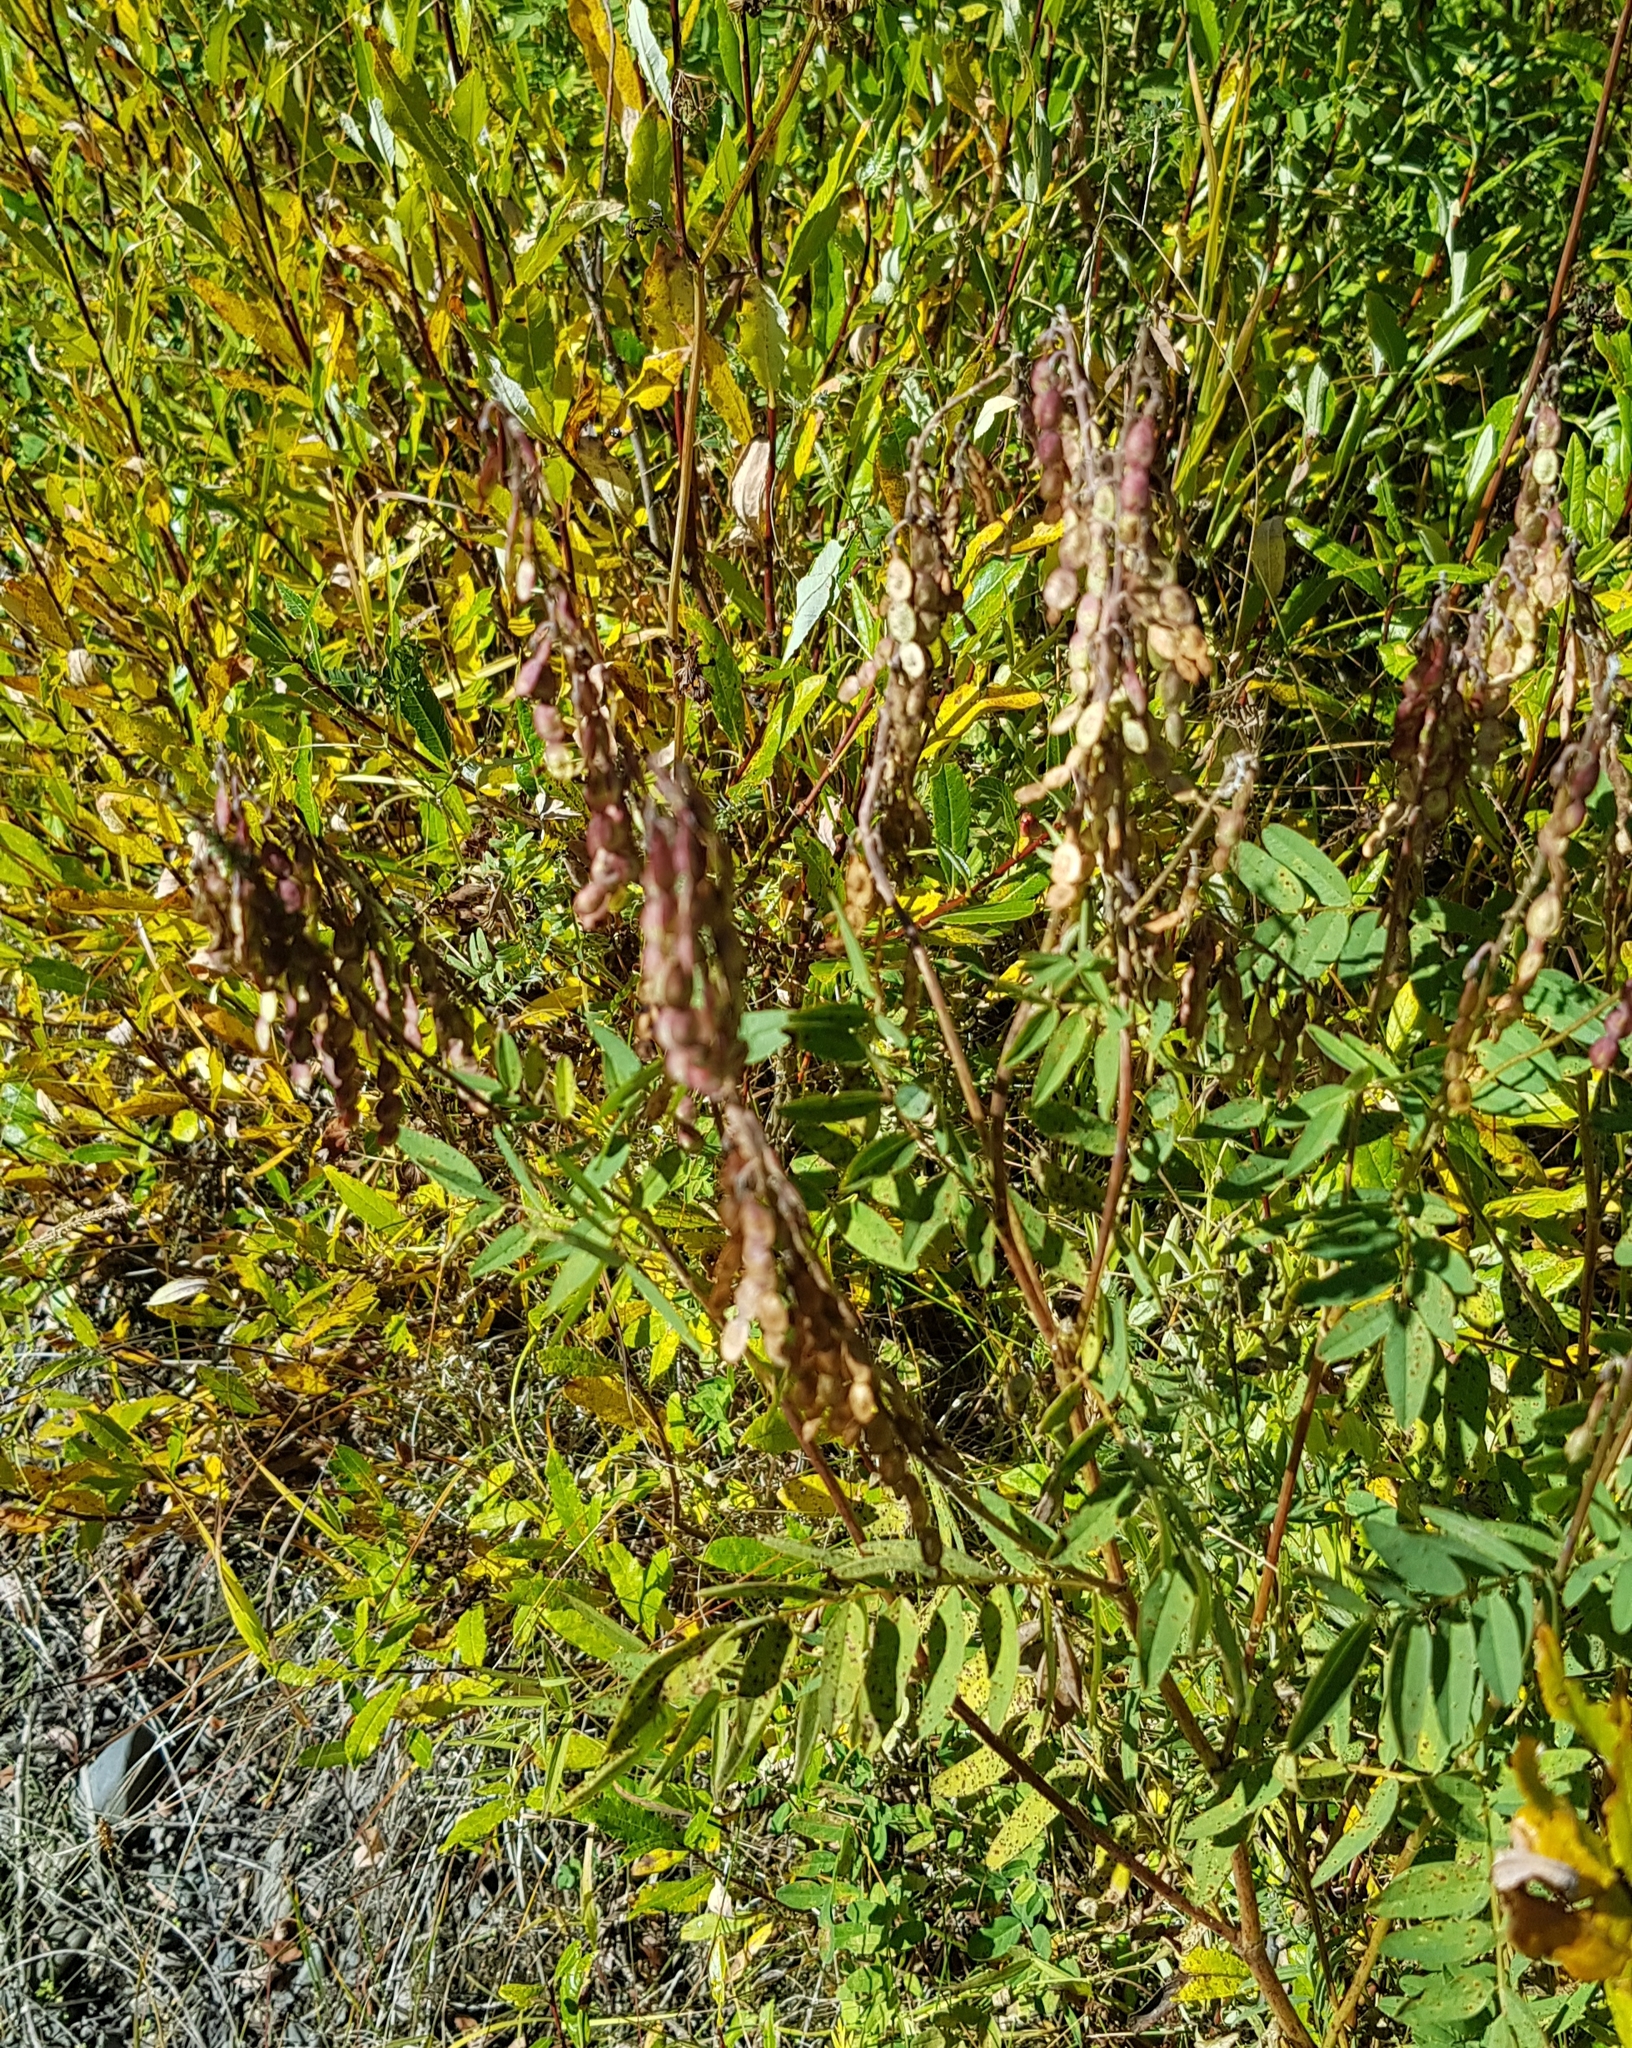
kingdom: Plantae
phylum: Tracheophyta
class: Magnoliopsida
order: Fabales
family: Fabaceae
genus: Hedysarum
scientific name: Hedysarum alpinum
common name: Alpine sweet-vetch
